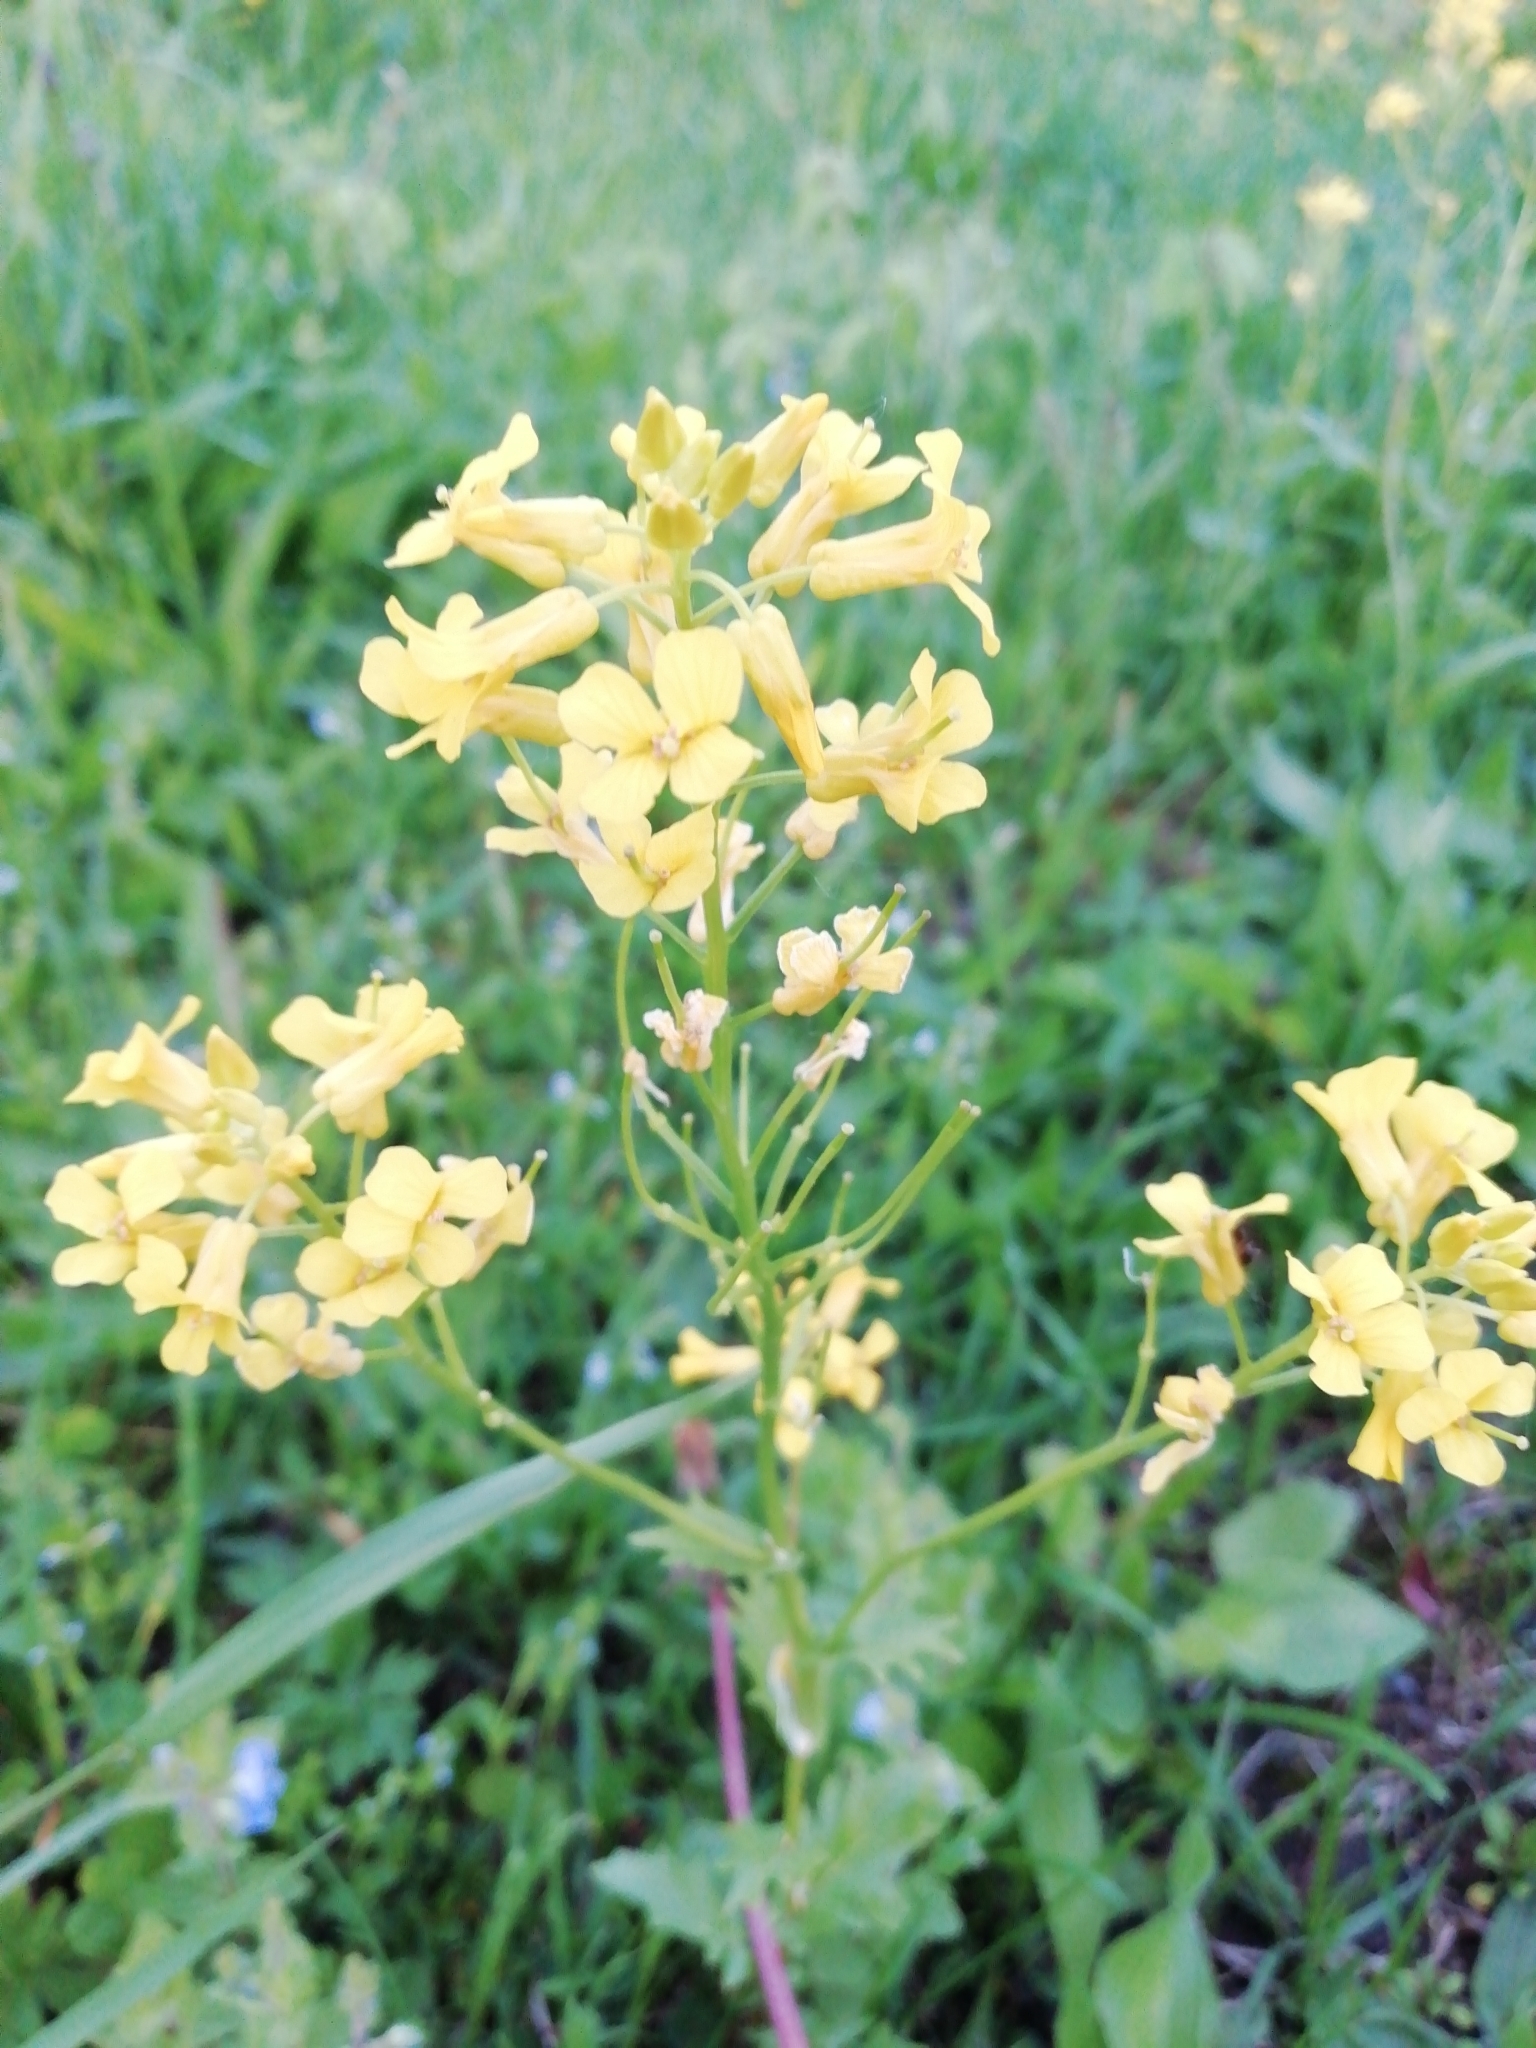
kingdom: Plantae
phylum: Tracheophyta
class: Magnoliopsida
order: Brassicales
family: Brassicaceae
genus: Barbarea
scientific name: Barbarea vulgaris
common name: Cressy-greens
